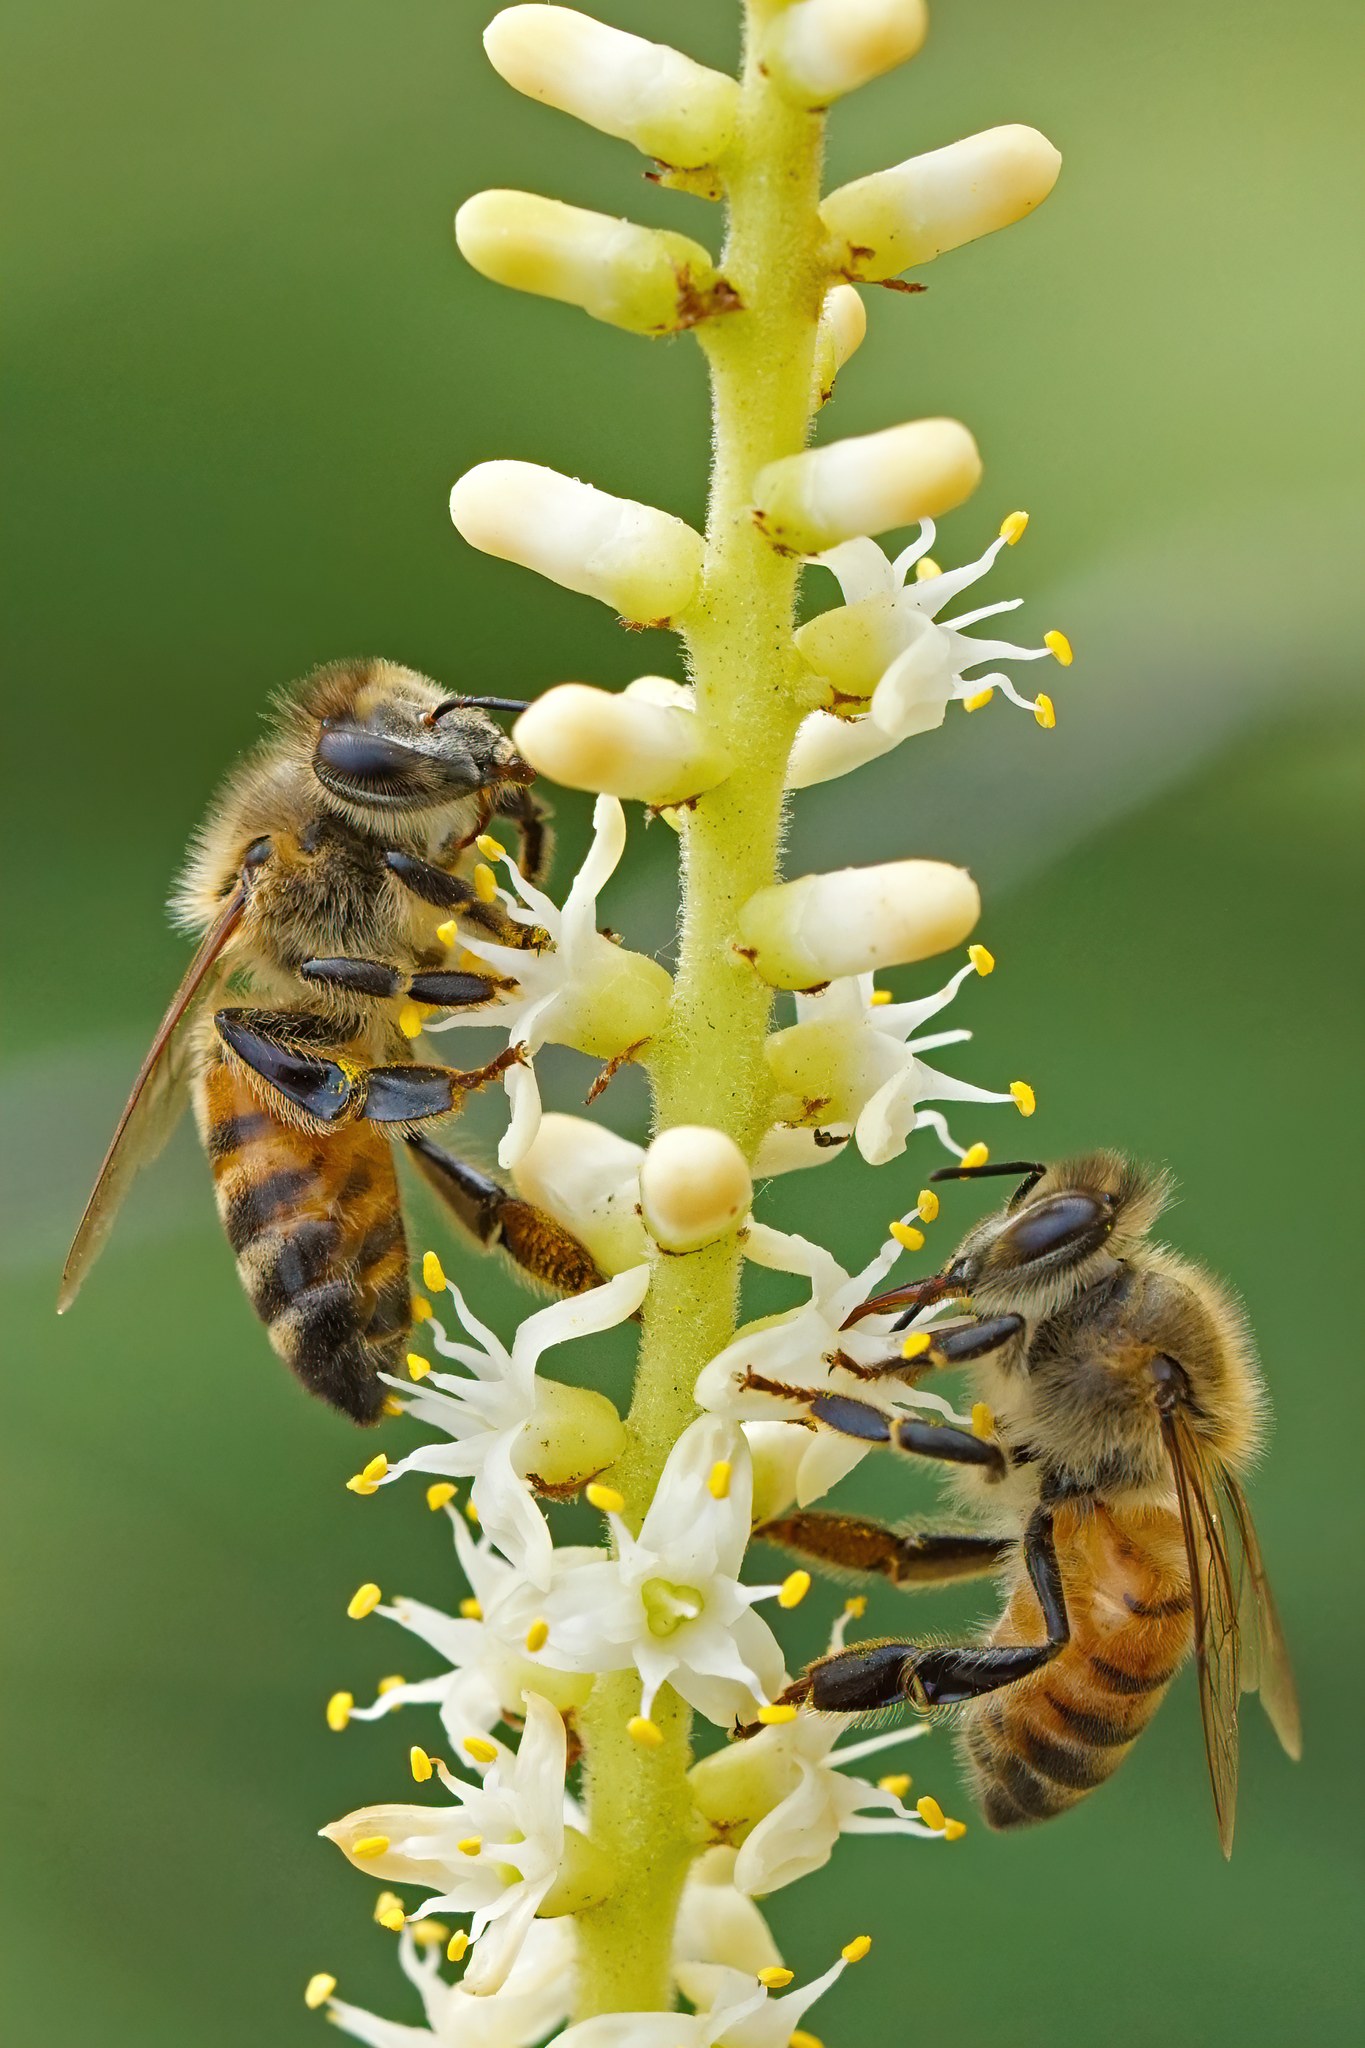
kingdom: Animalia
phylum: Arthropoda
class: Insecta
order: Hymenoptera
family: Apidae
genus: Apis
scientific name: Apis mellifera
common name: Honey bee
